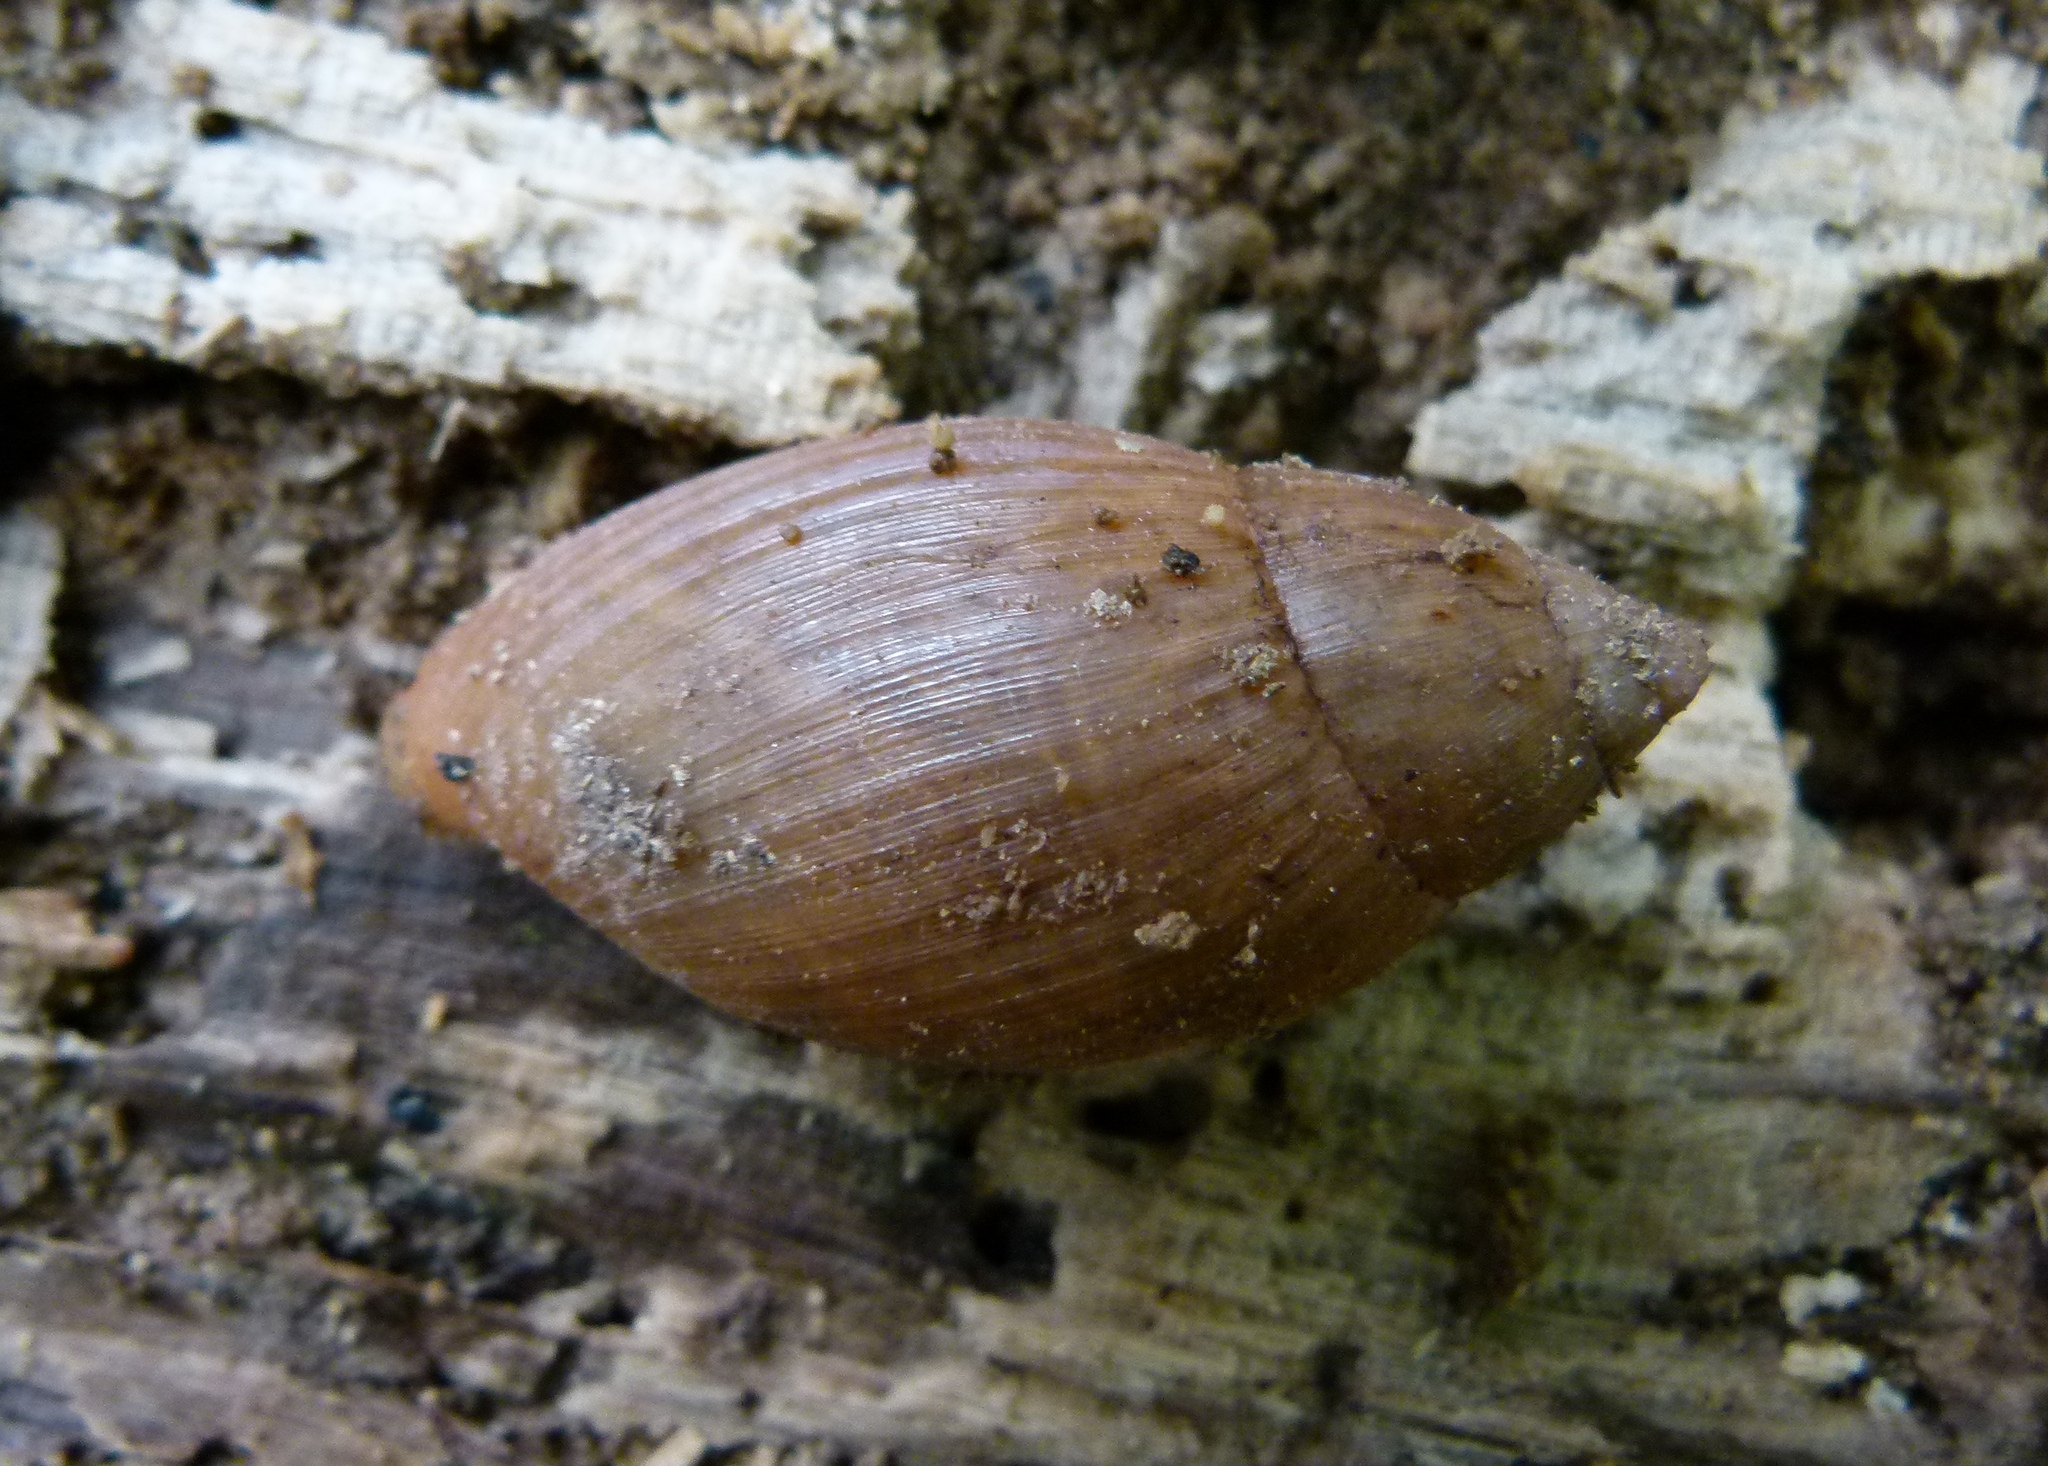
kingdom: Animalia
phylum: Mollusca
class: Gastropoda
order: Stylommatophora
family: Spiraxidae
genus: Euglandina
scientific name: Euglandina rosea
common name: Rosy wolfsnail
